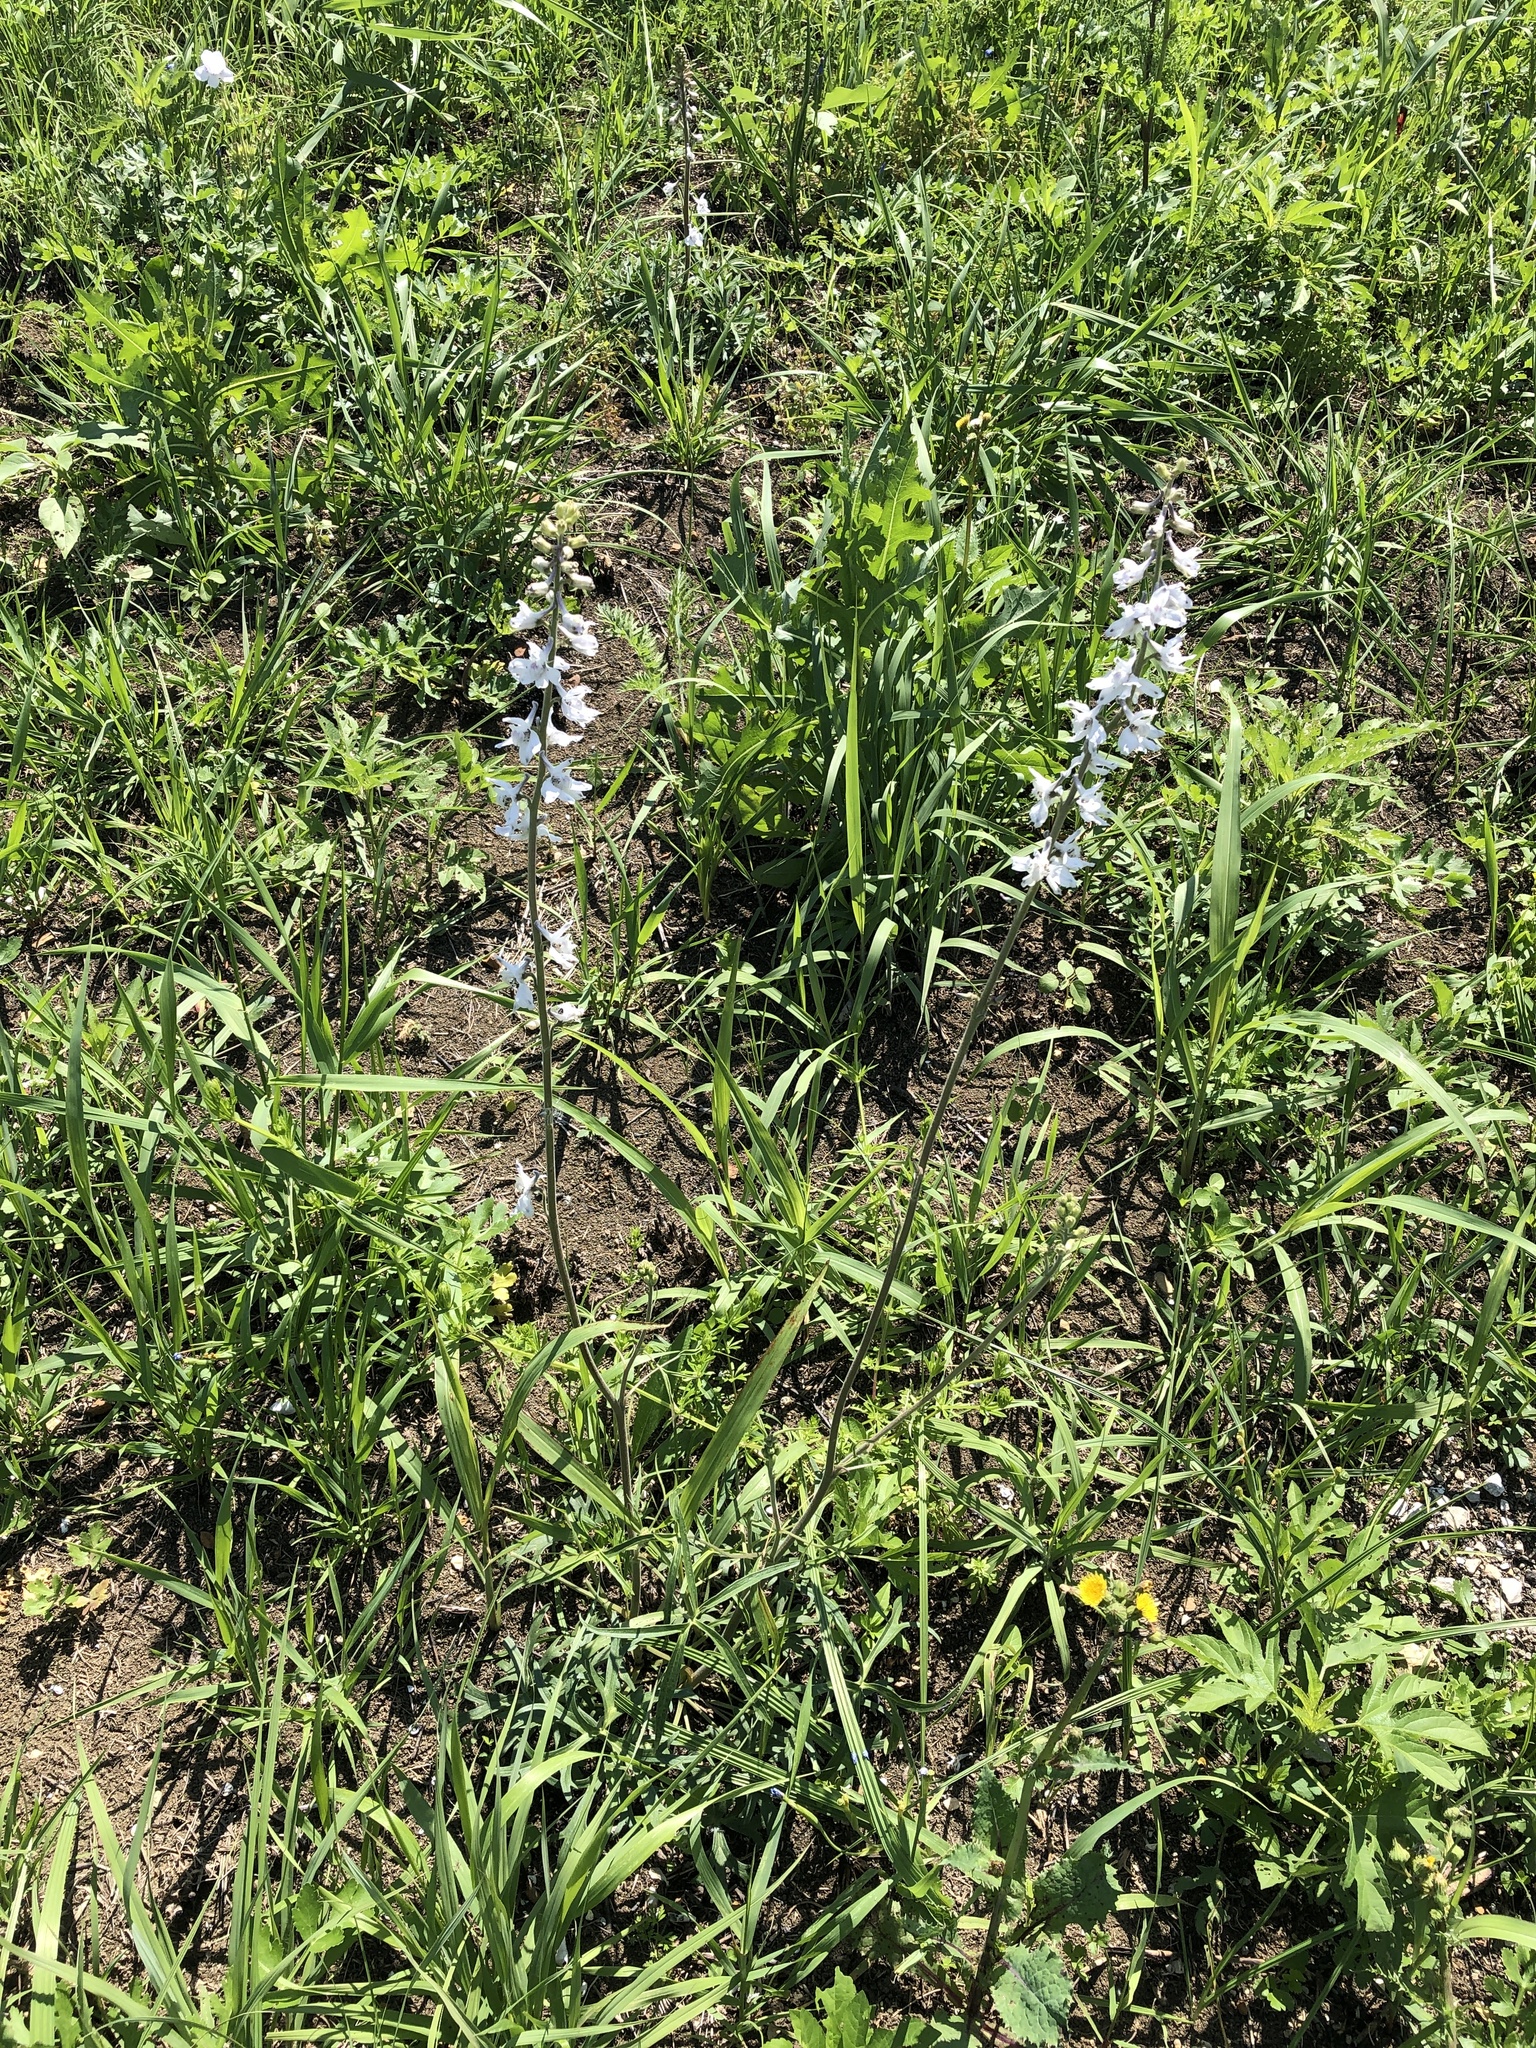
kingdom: Plantae
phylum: Tracheophyta
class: Magnoliopsida
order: Ranunculales
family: Ranunculaceae
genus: Delphinium
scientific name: Delphinium carolinianum
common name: Carolina larkspur
